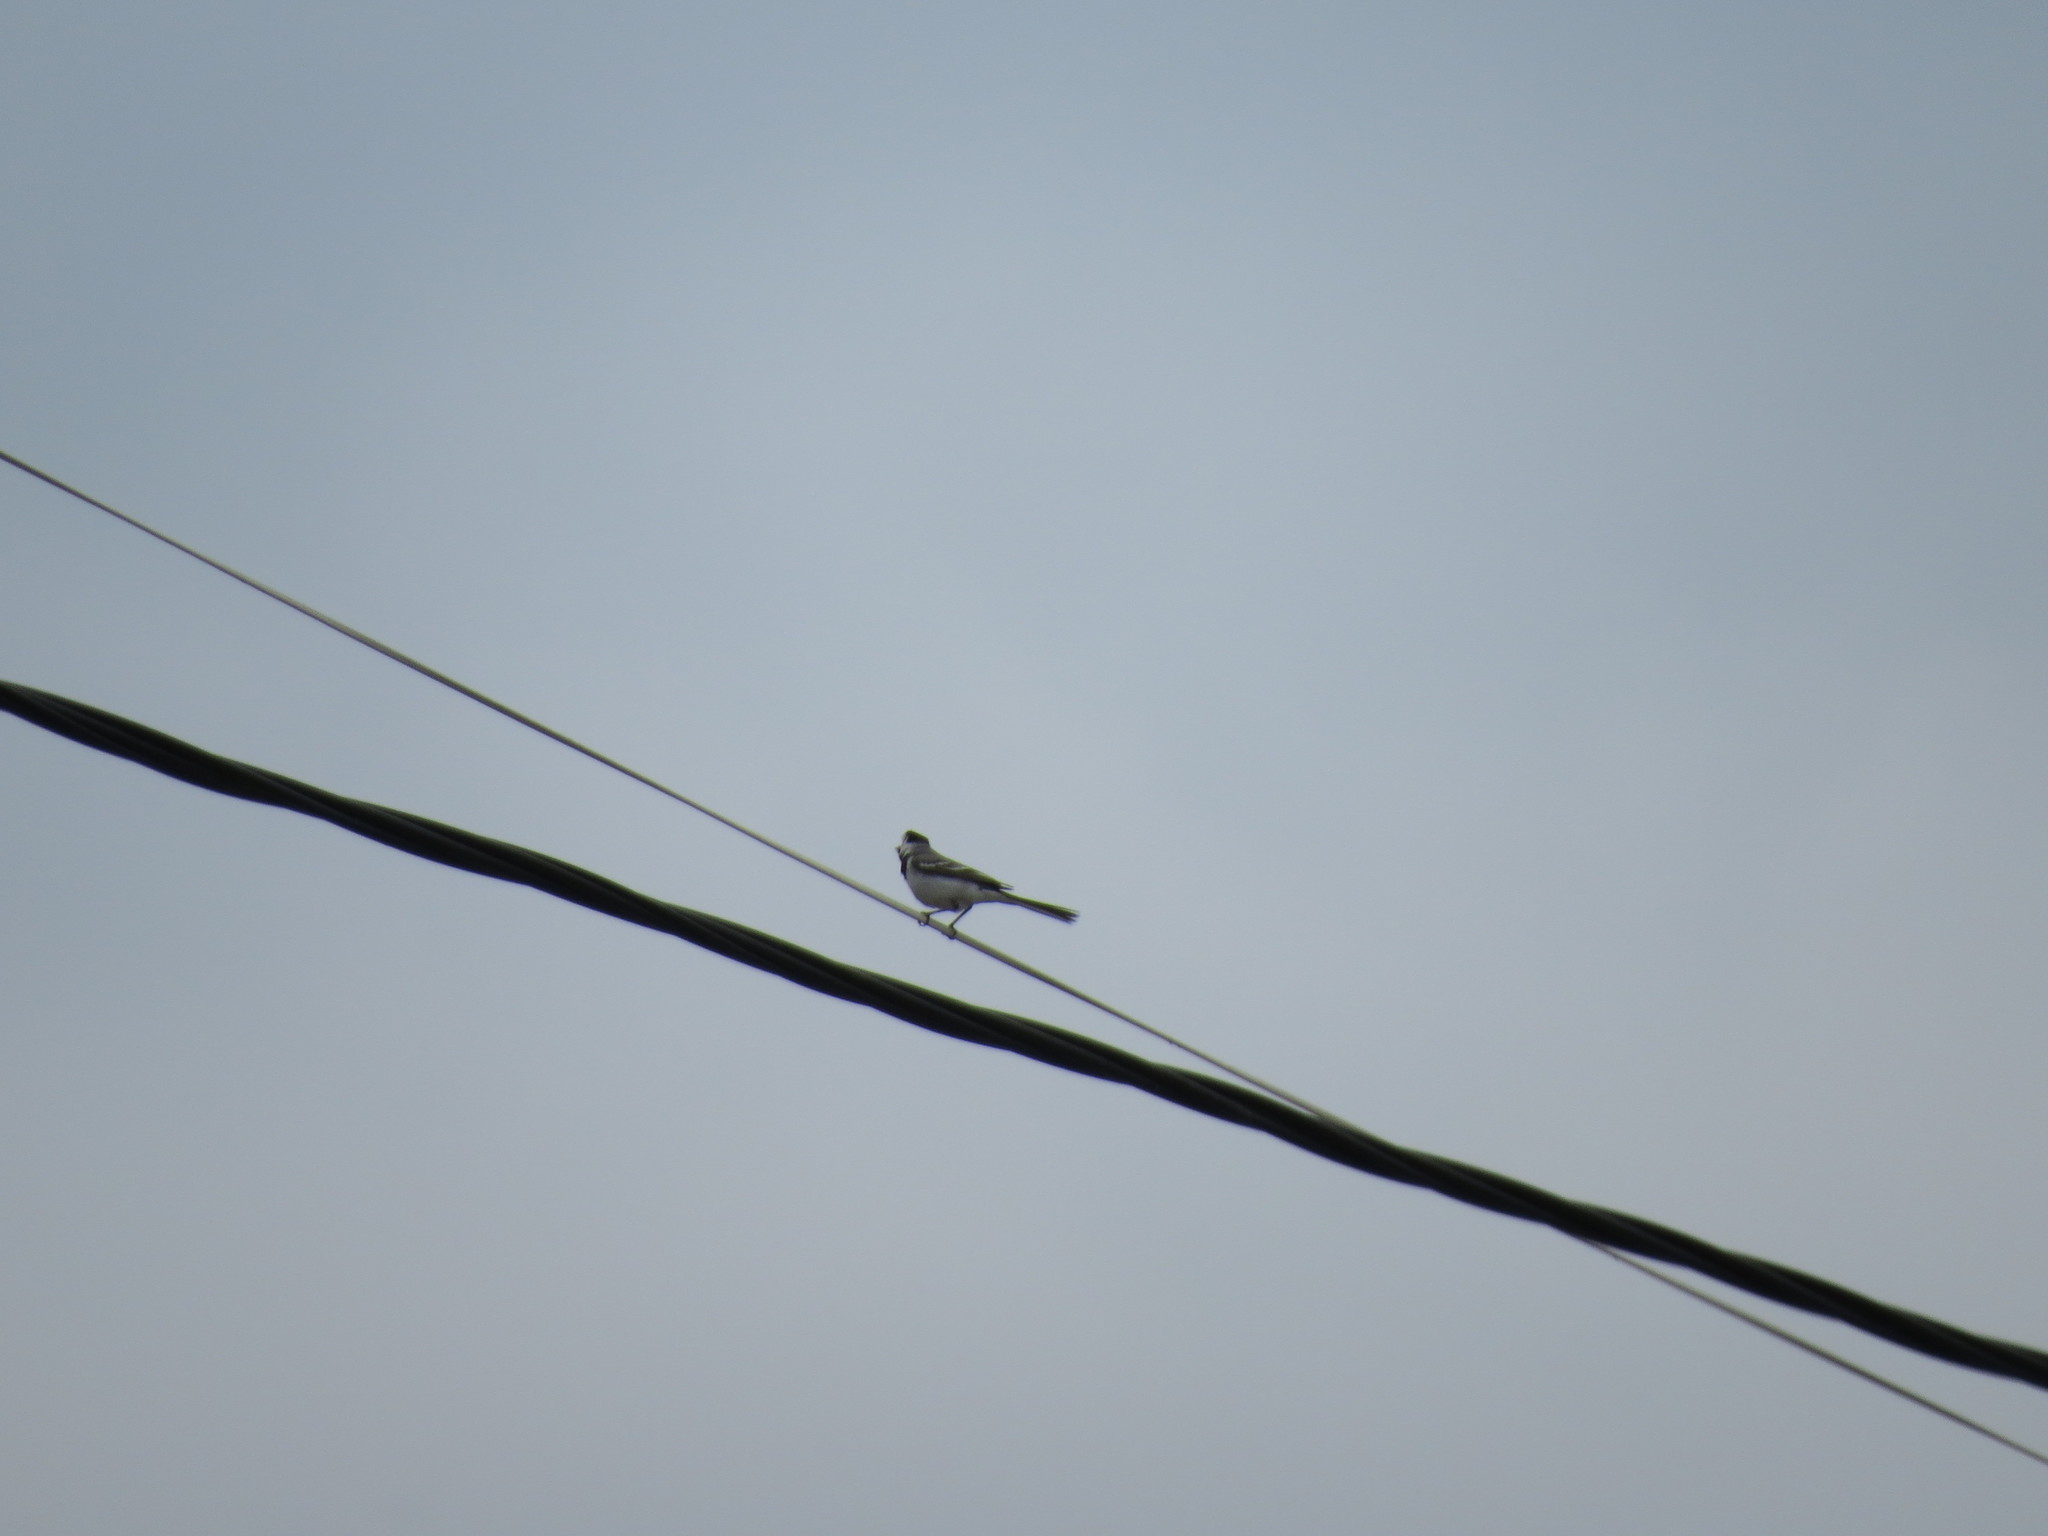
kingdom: Animalia
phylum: Chordata
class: Aves
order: Passeriformes
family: Motacillidae
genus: Motacilla
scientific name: Motacilla alba
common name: White wagtail
